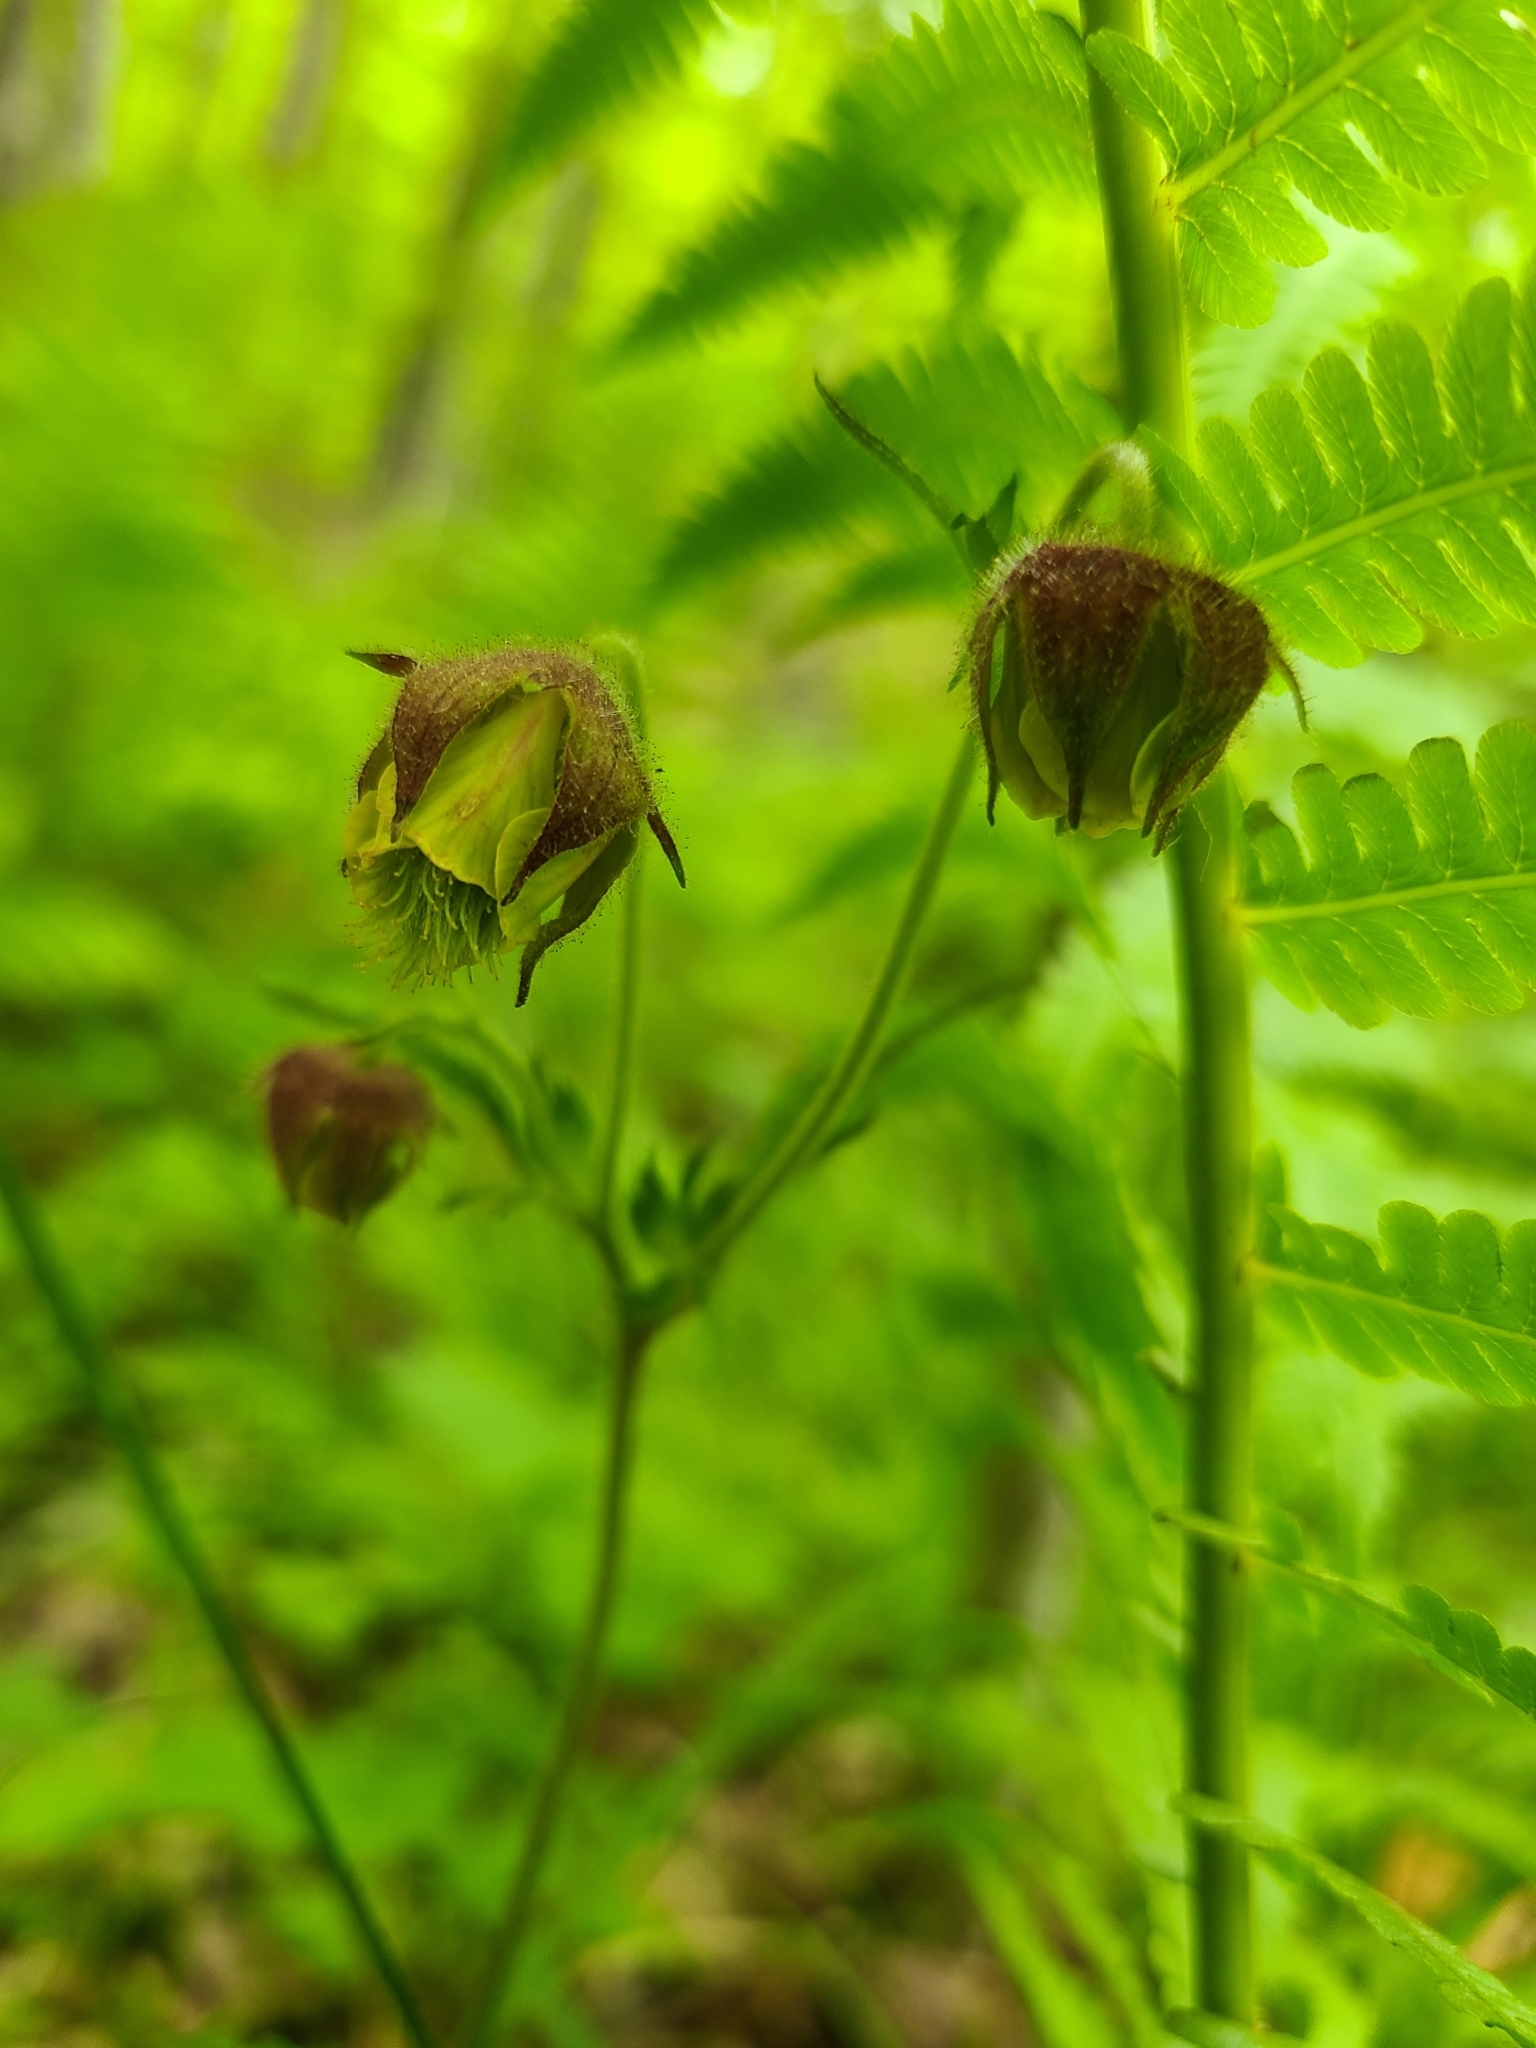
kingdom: Plantae
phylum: Tracheophyta
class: Magnoliopsida
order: Rosales
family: Rosaceae
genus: Geum
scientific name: Geum rivale
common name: Water avens
